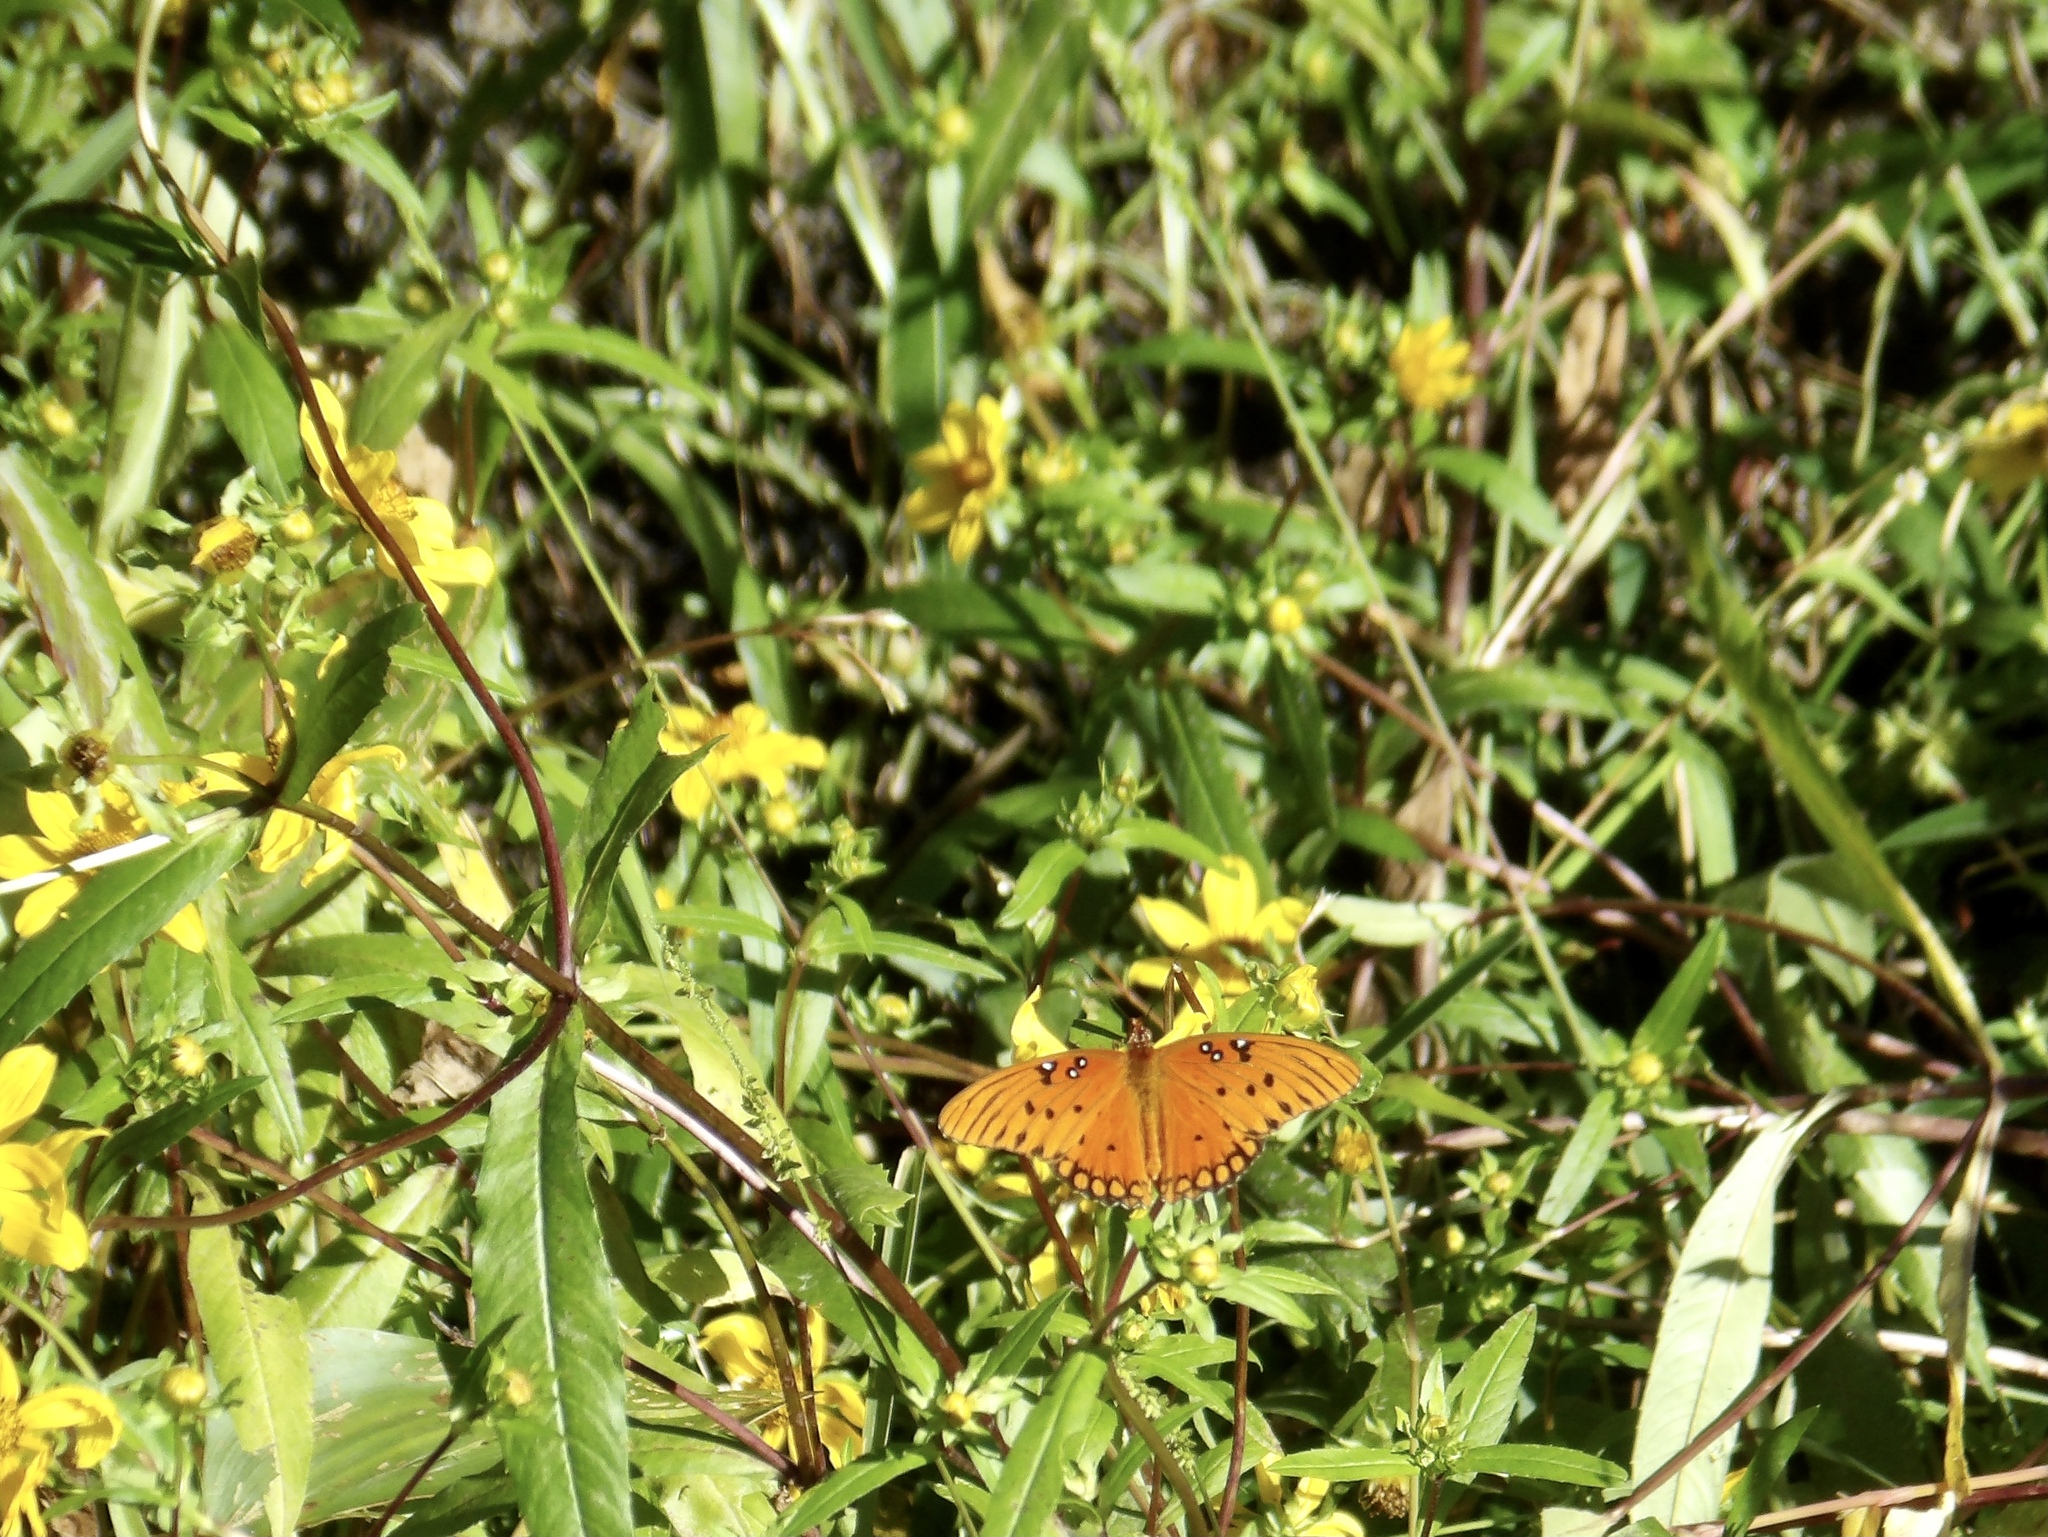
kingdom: Animalia
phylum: Arthropoda
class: Insecta
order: Lepidoptera
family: Nymphalidae
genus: Dione
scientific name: Dione vanillae
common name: Gulf fritillary
